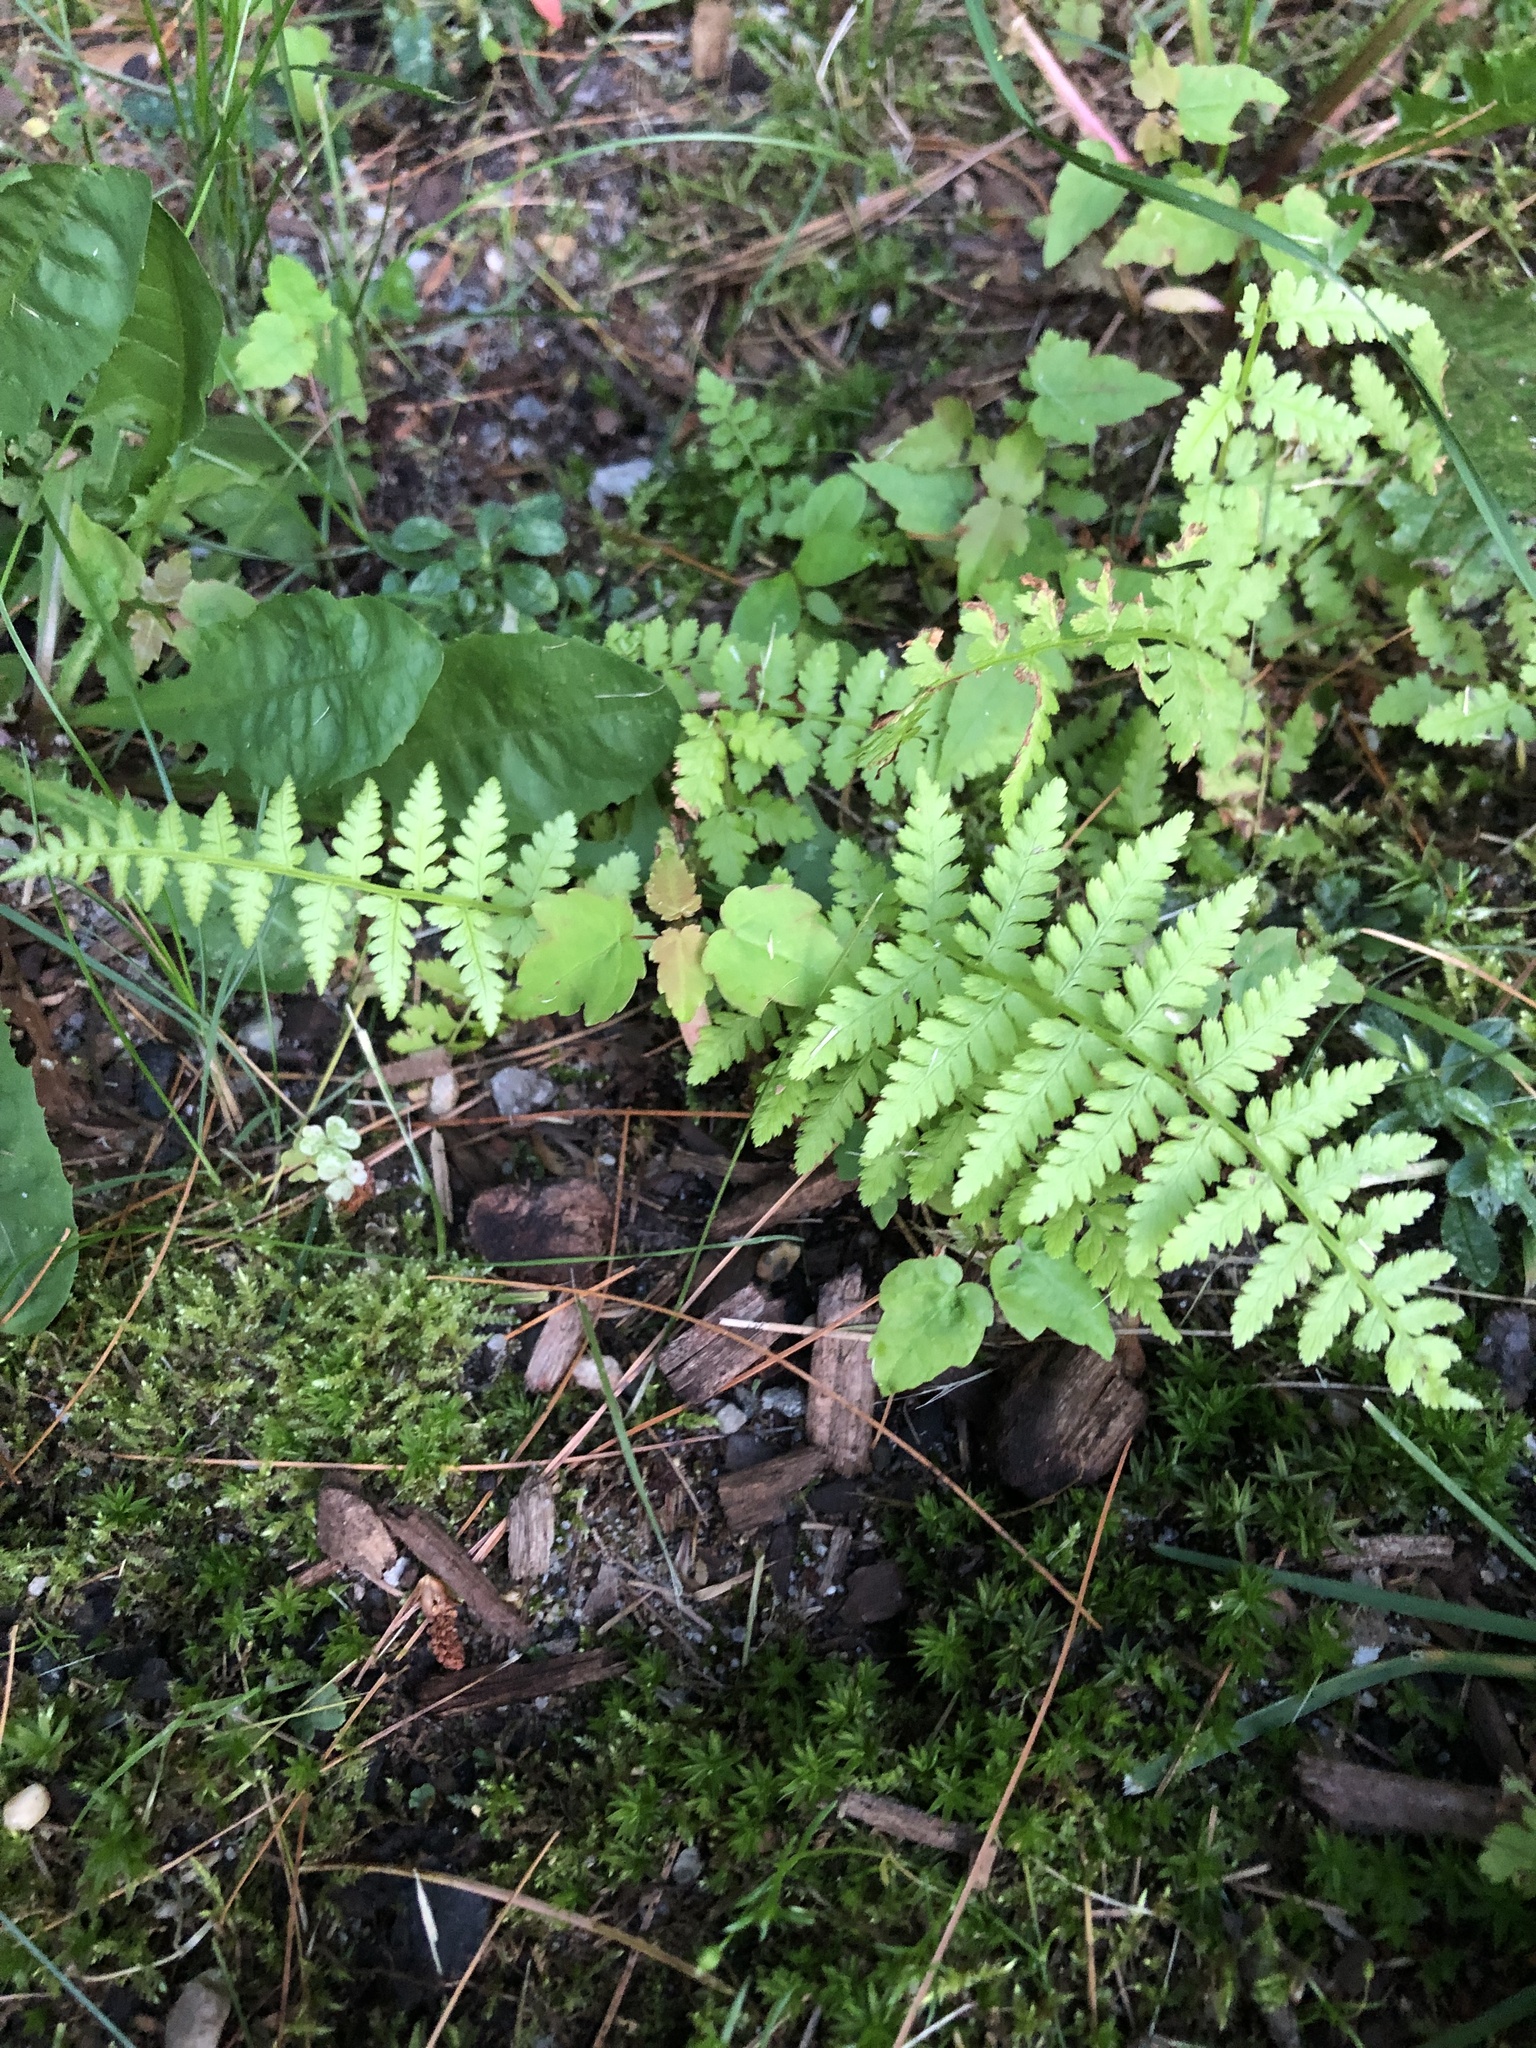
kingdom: Plantae
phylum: Tracheophyta
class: Polypodiopsida
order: Polypodiales
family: Athyriaceae
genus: Athyrium
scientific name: Athyrium angustum
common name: Northern lady fern
